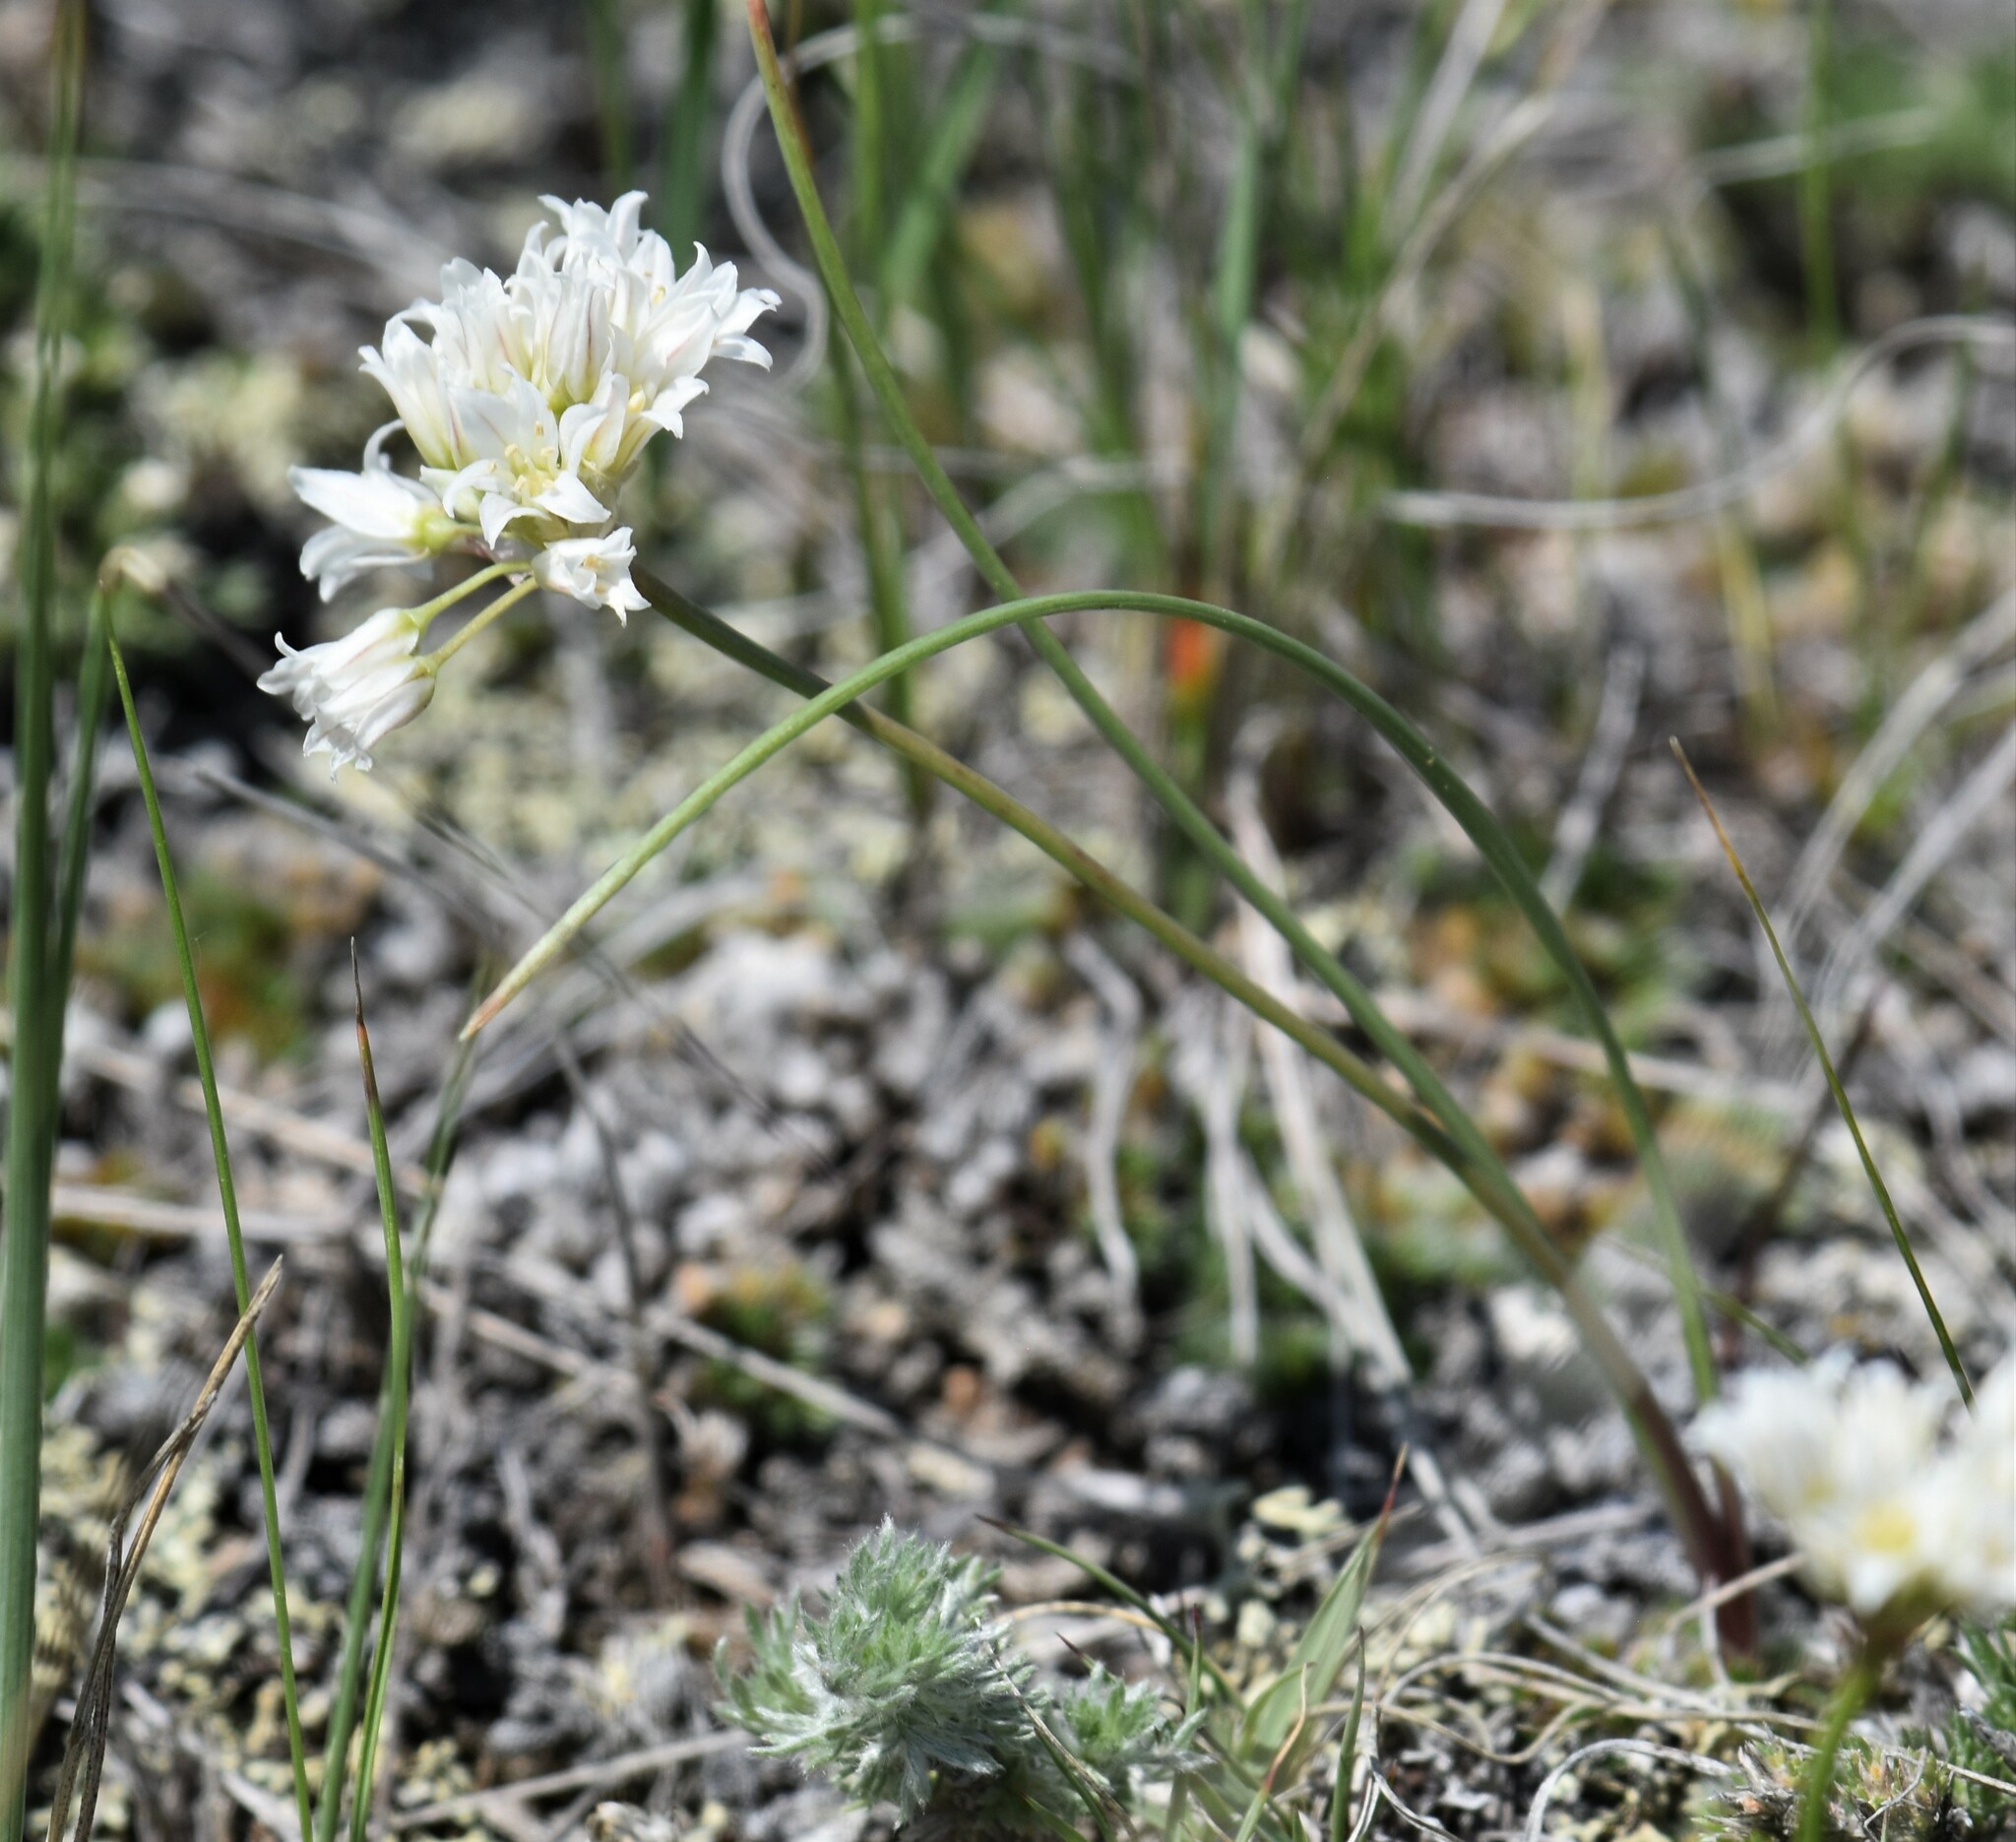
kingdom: Plantae
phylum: Tracheophyta
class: Liliopsida
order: Asparagales
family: Amaryllidaceae
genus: Allium
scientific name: Allium textile
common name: Prairie onion
